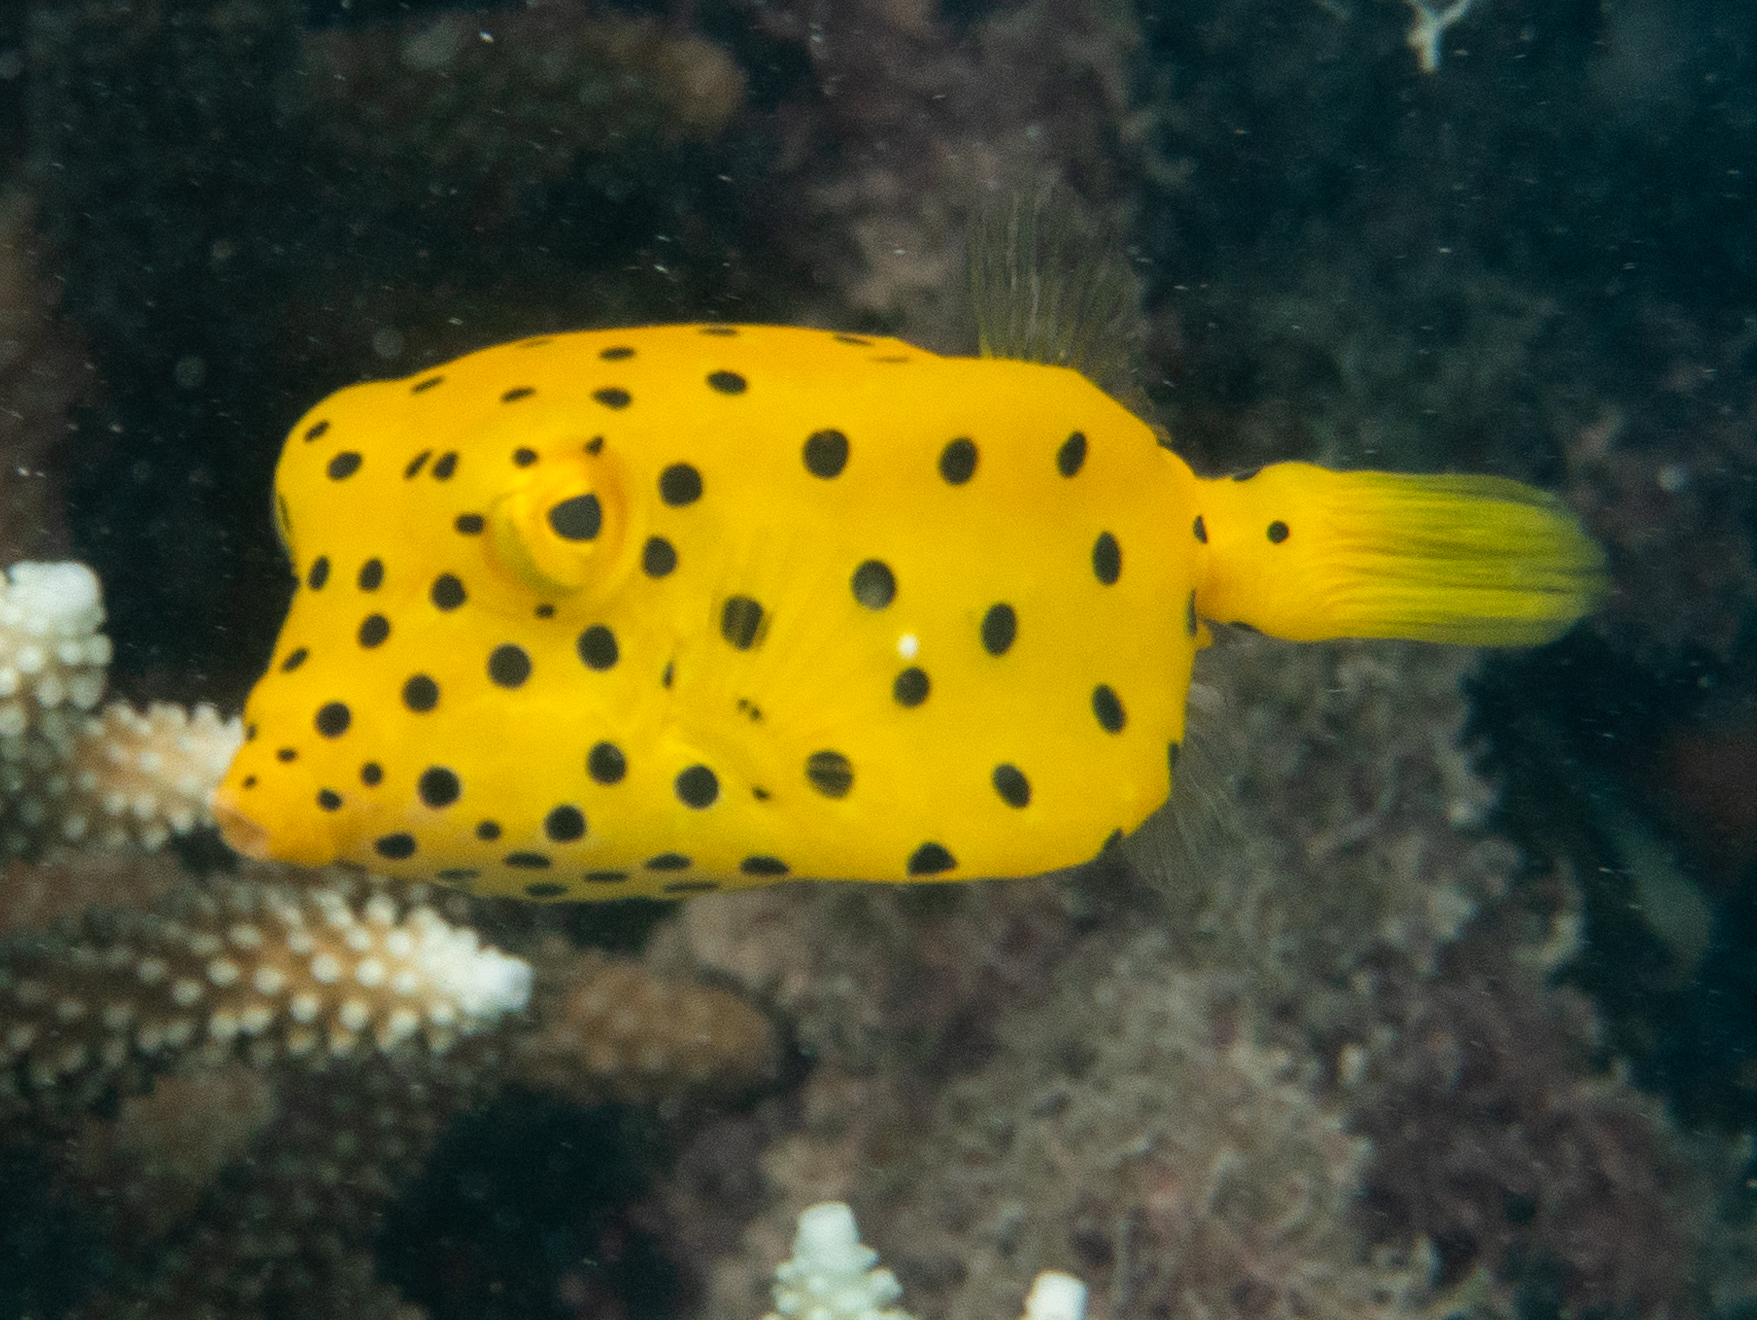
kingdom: Animalia
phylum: Chordata
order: Tetraodontiformes
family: Ostraciidae
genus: Ostracion
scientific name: Ostracion cubicus
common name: Cube trunkfish
